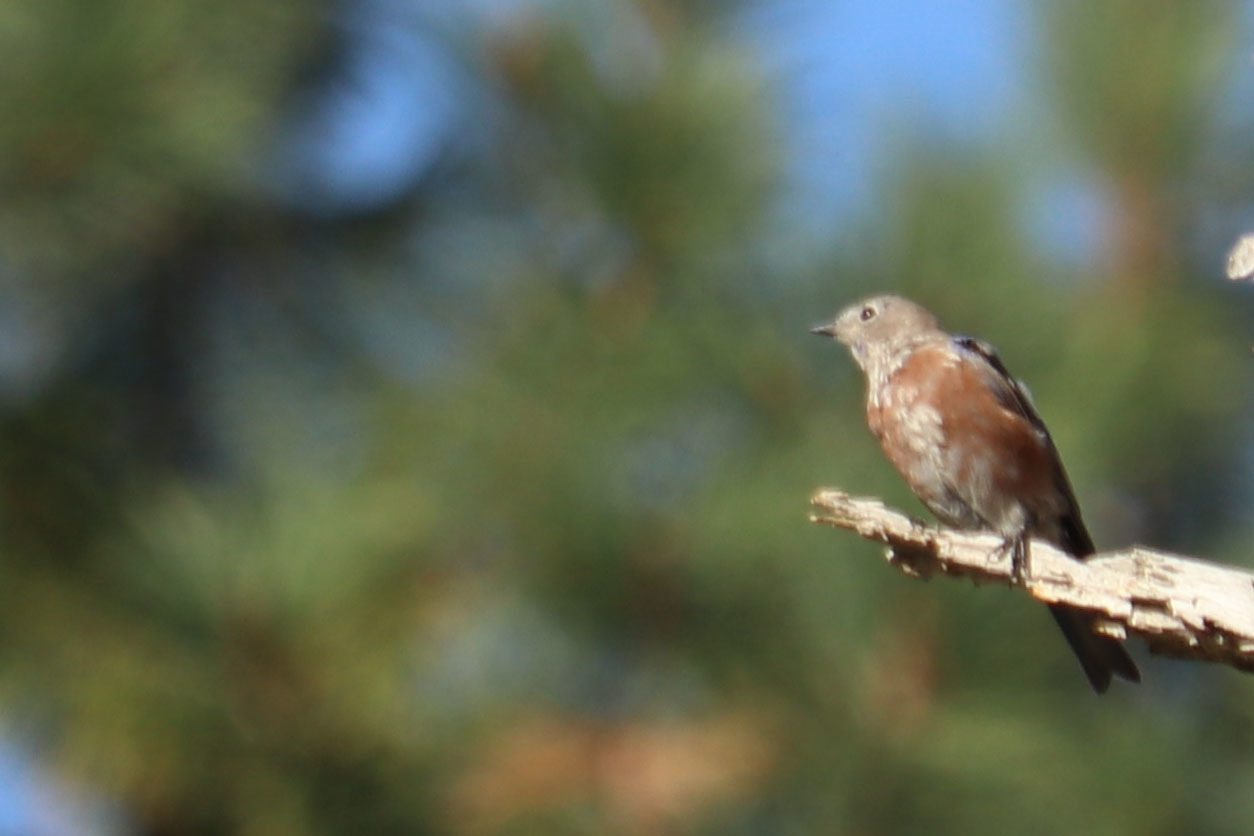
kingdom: Animalia
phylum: Chordata
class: Aves
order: Passeriformes
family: Turdidae
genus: Sialia
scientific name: Sialia mexicana
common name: Western bluebird
